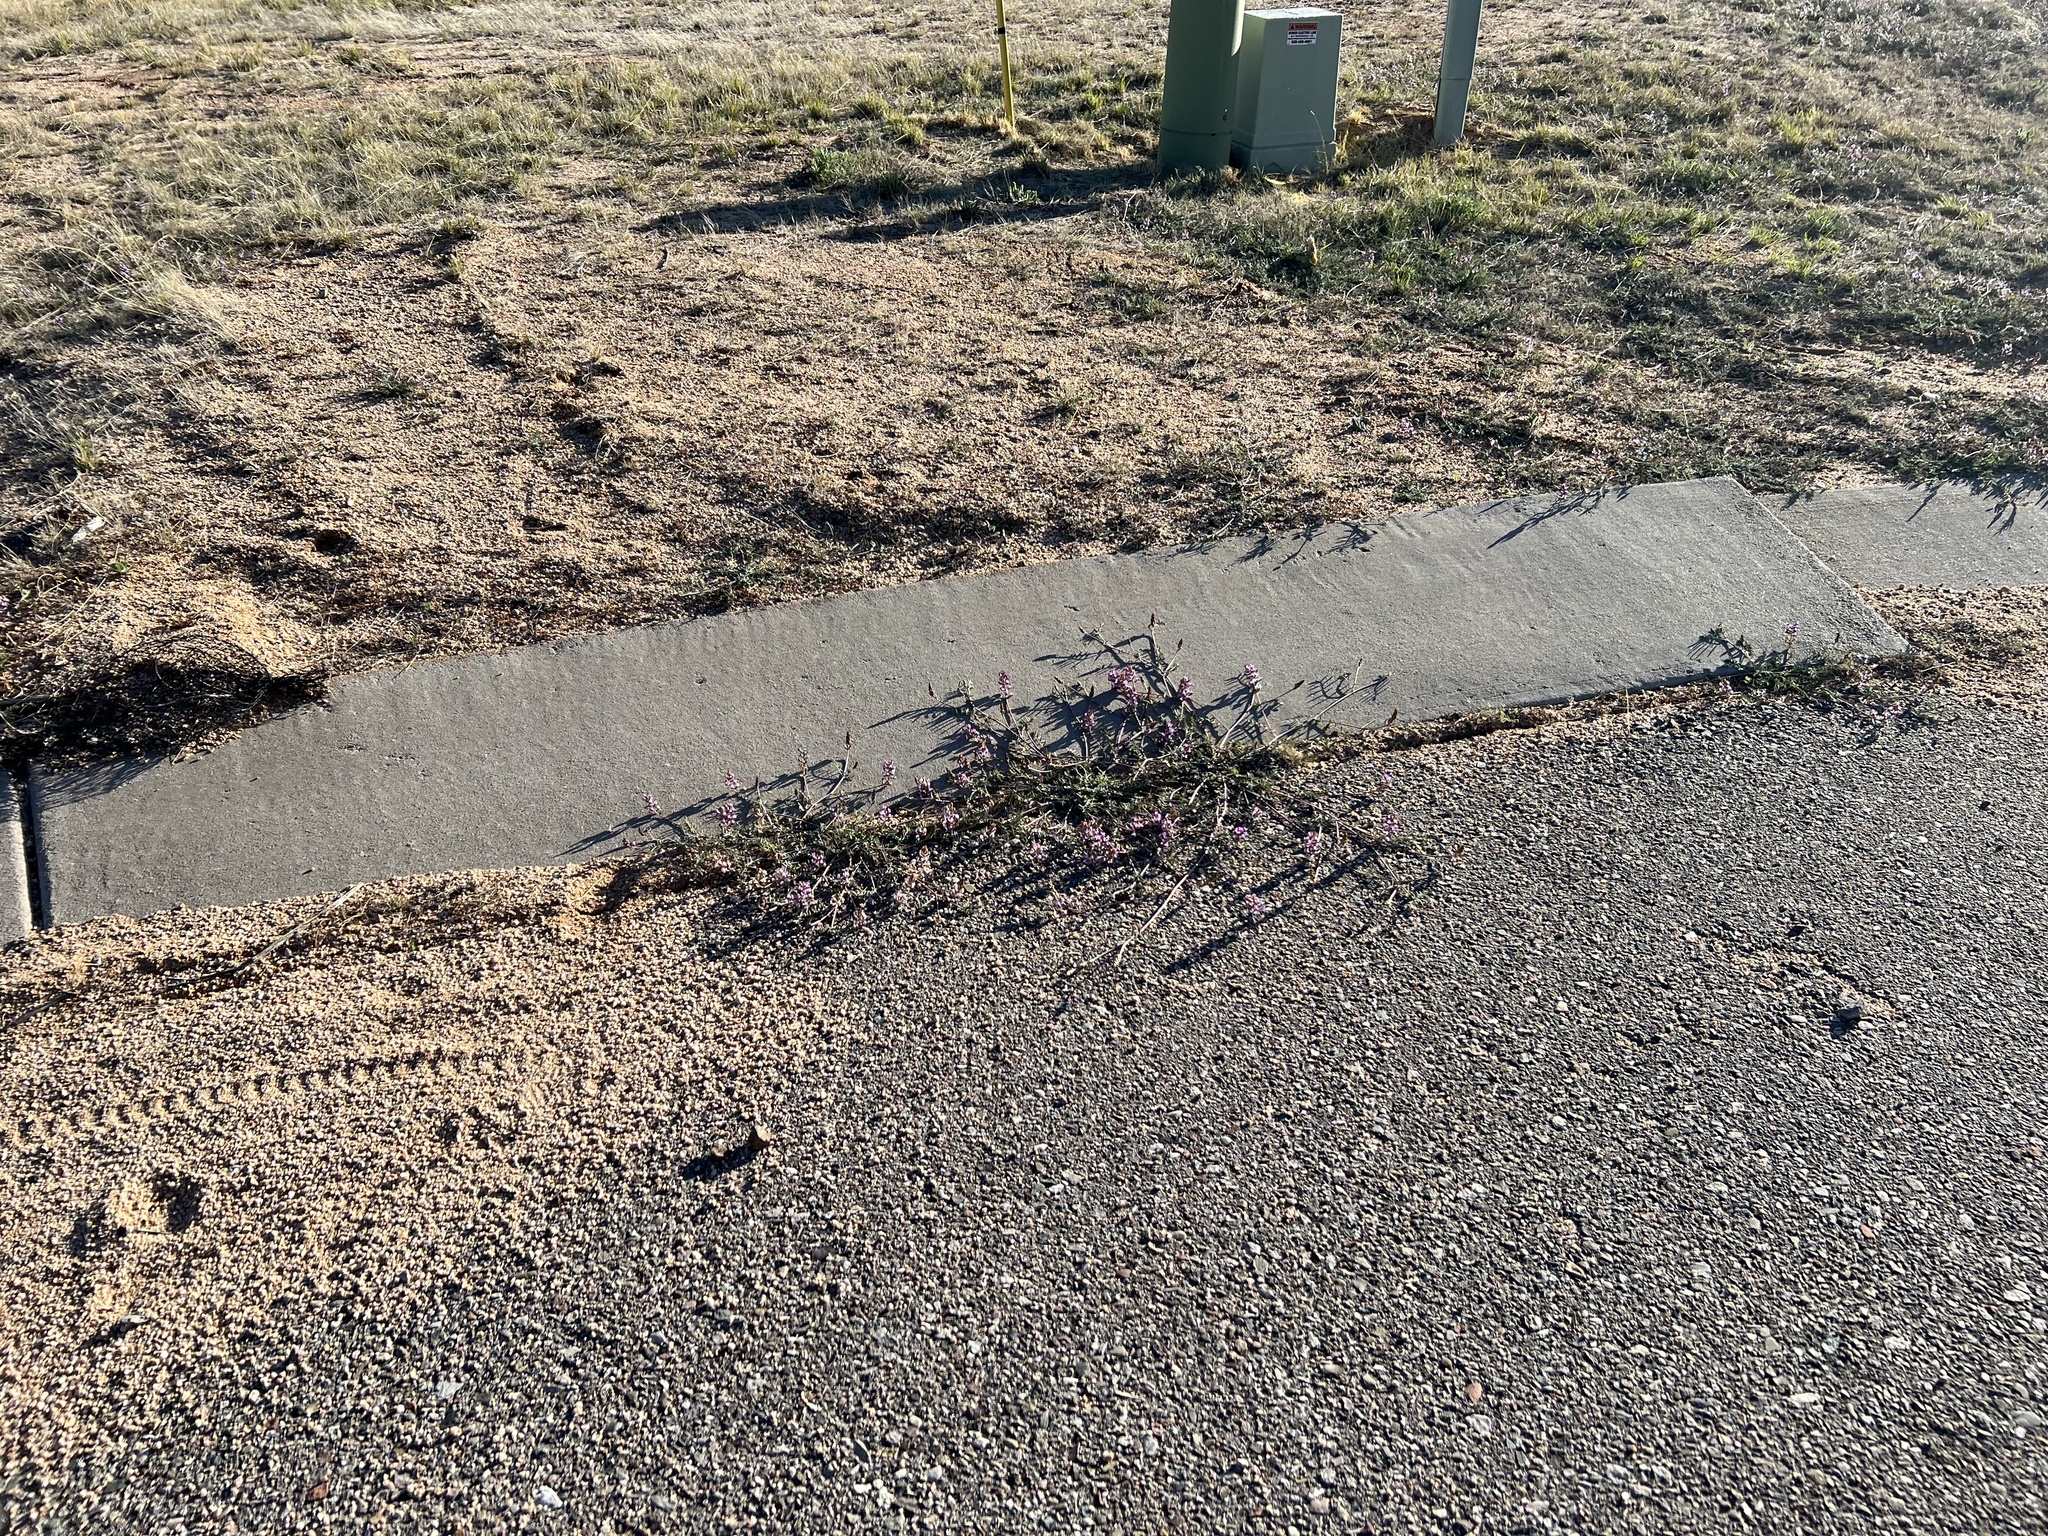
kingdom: Plantae
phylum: Tracheophyta
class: Magnoliopsida
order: Fabales
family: Fabaceae
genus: Astragalus
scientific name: Astragalus arizonicus
